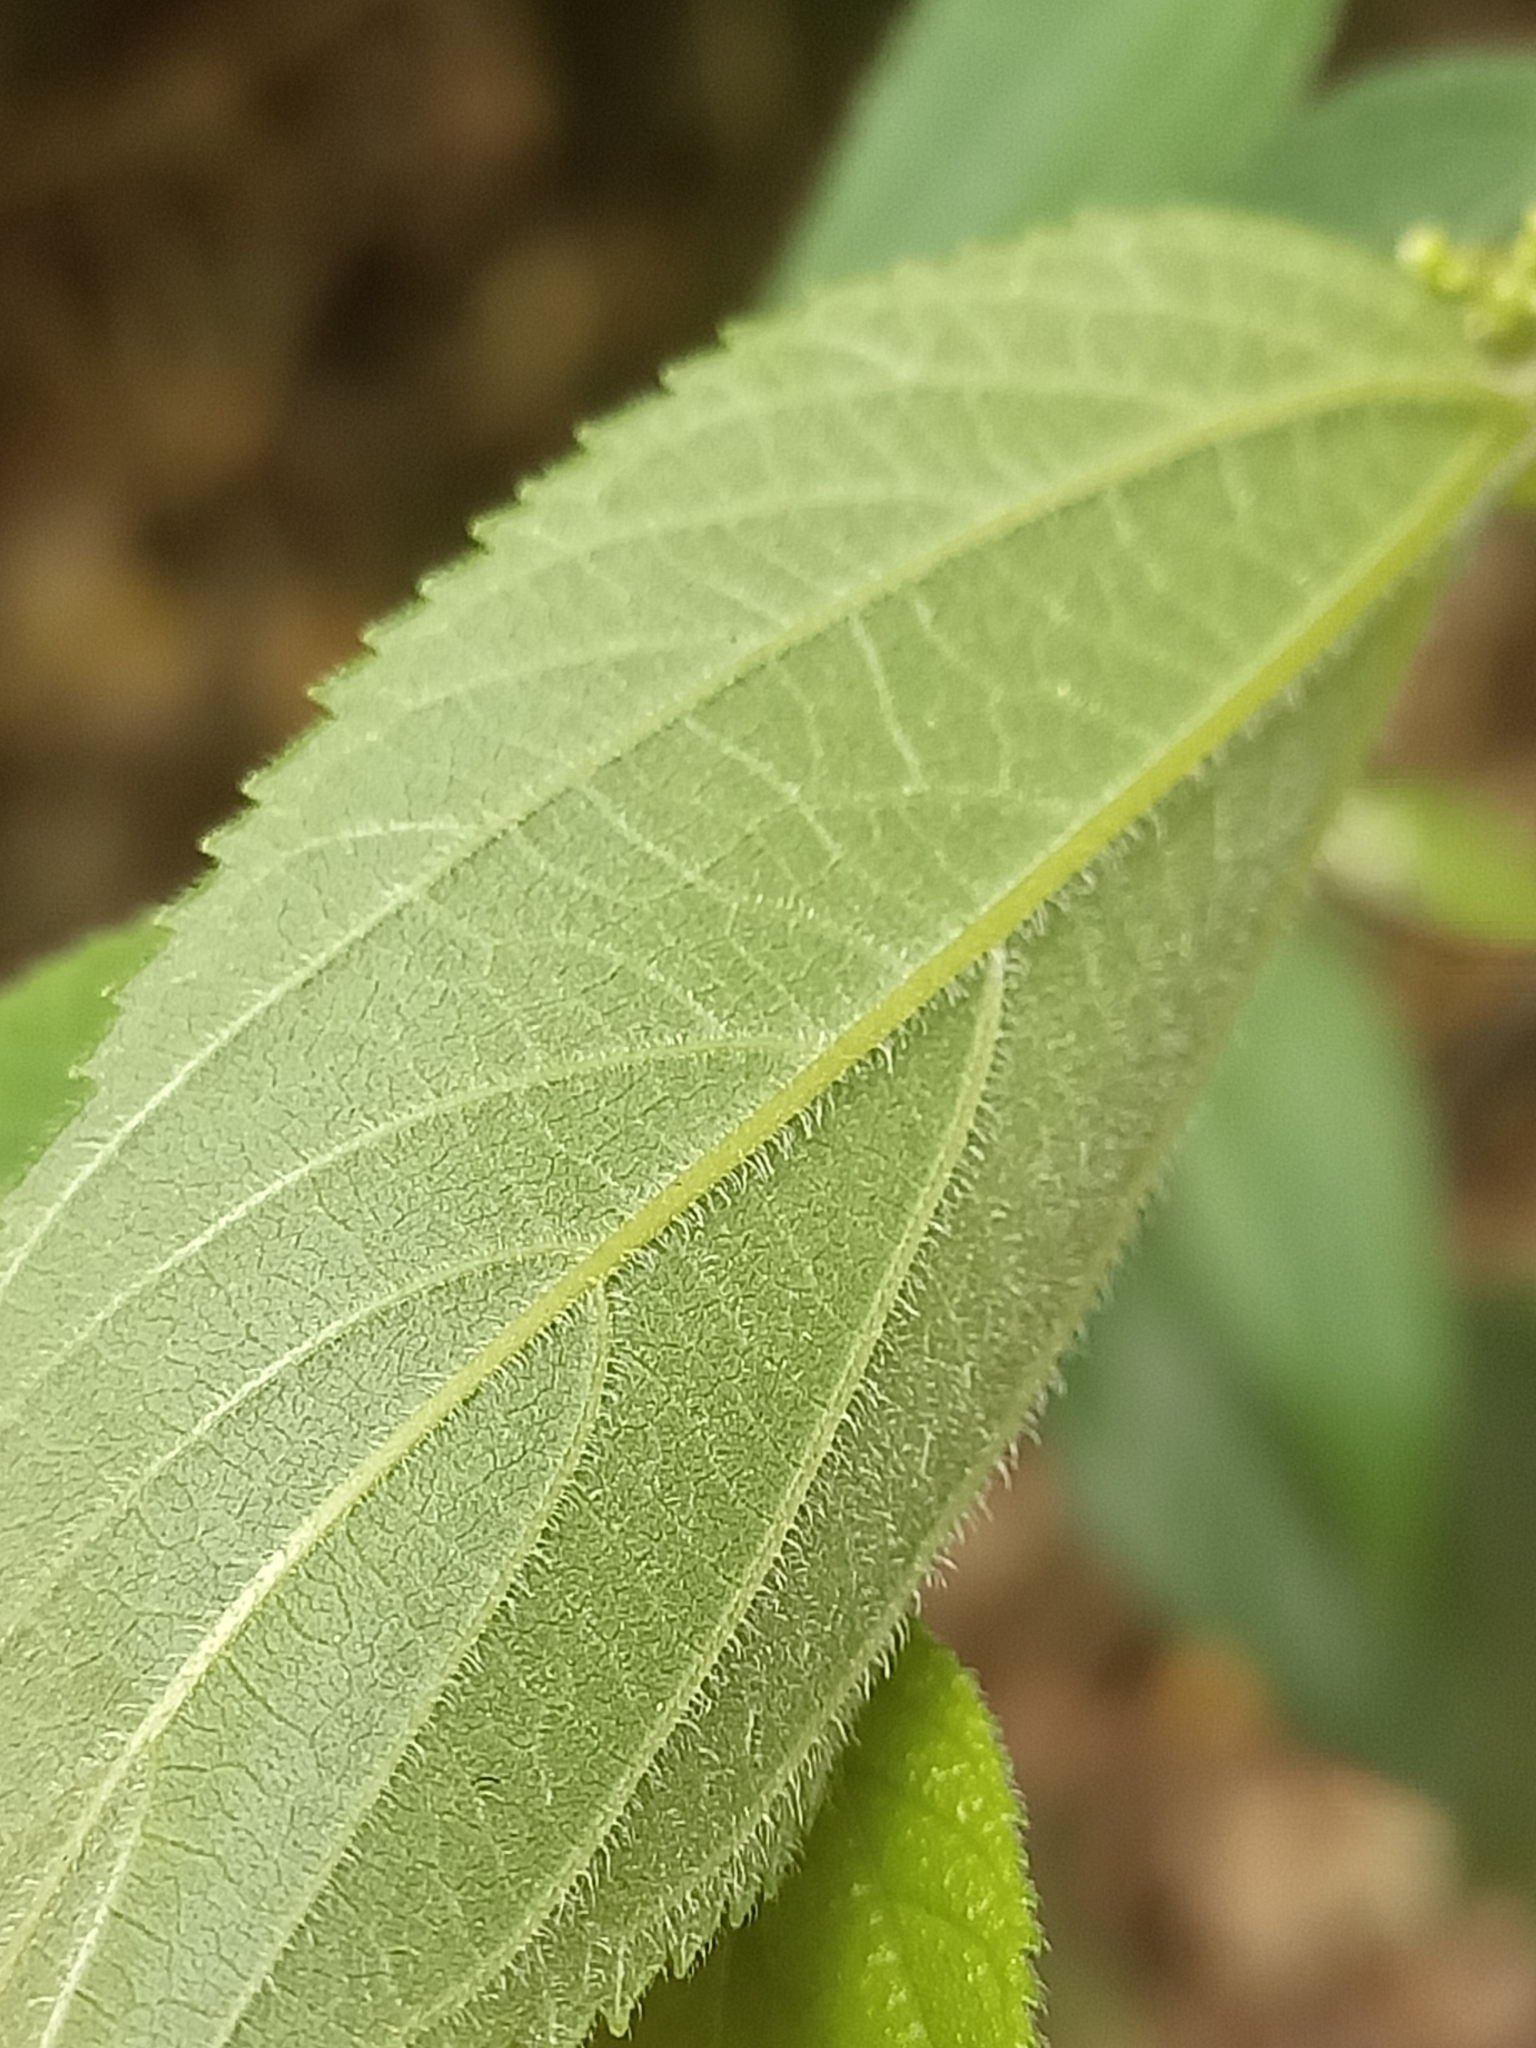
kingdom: Plantae
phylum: Tracheophyta
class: Magnoliopsida
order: Rosales
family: Cannabaceae
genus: Trema
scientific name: Trema tomentosum
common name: Peach-leaf-poisonbush
